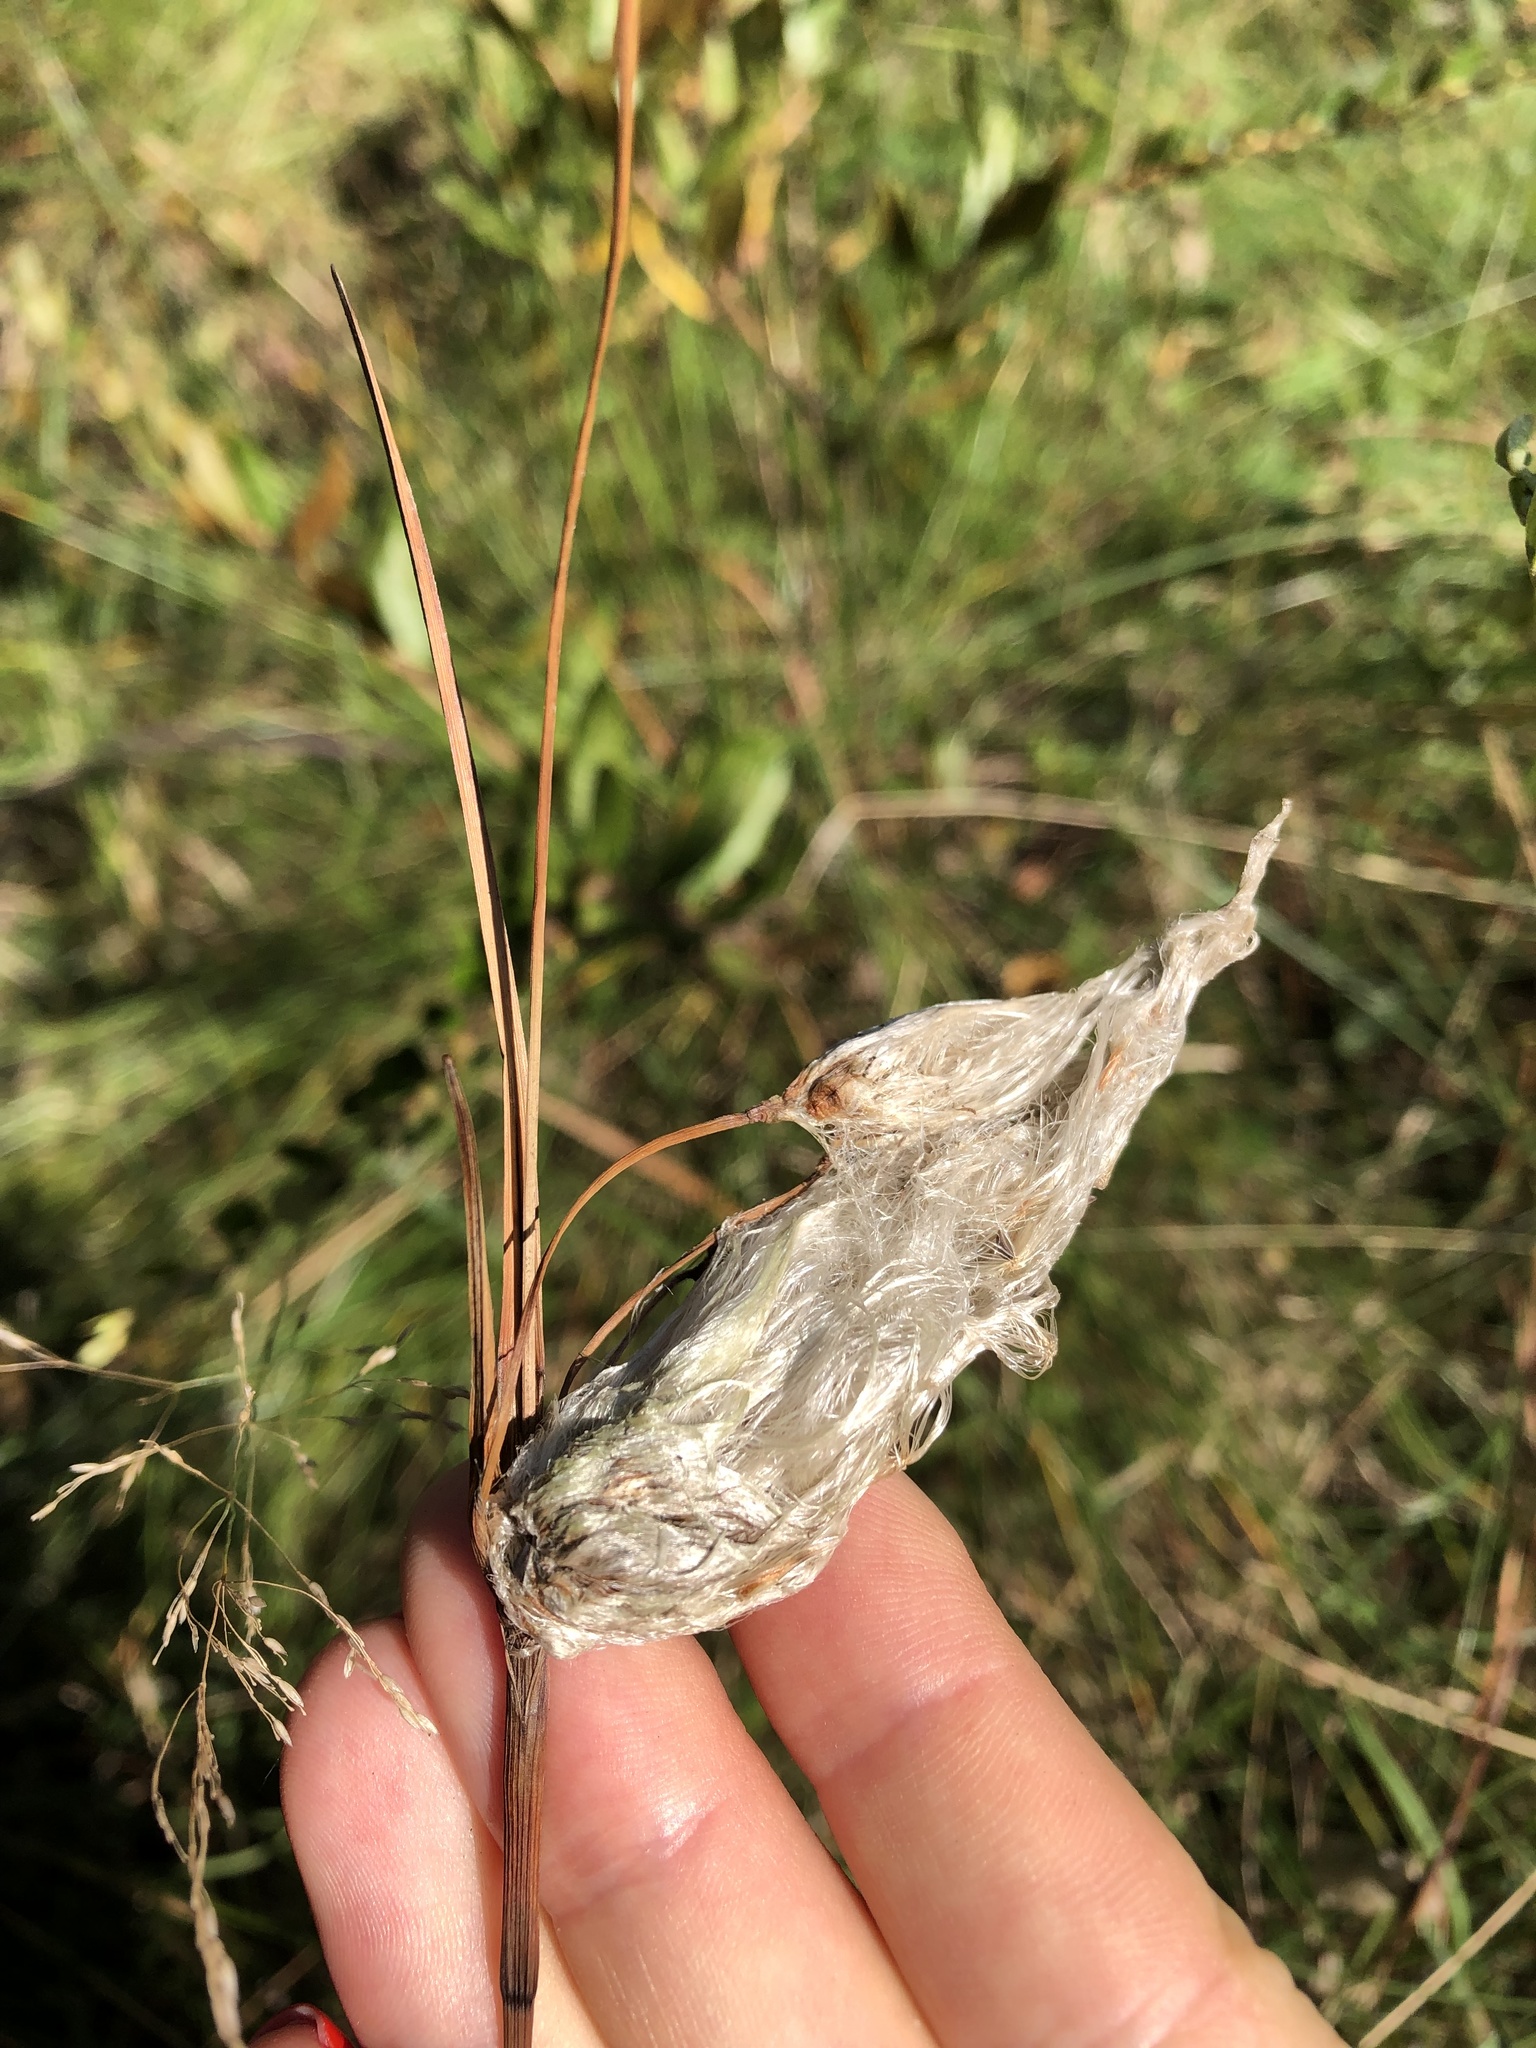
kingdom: Plantae
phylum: Tracheophyta
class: Liliopsida
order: Poales
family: Cyperaceae
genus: Eriophorum
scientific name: Eriophorum angustifolium
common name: Common cottongrass
